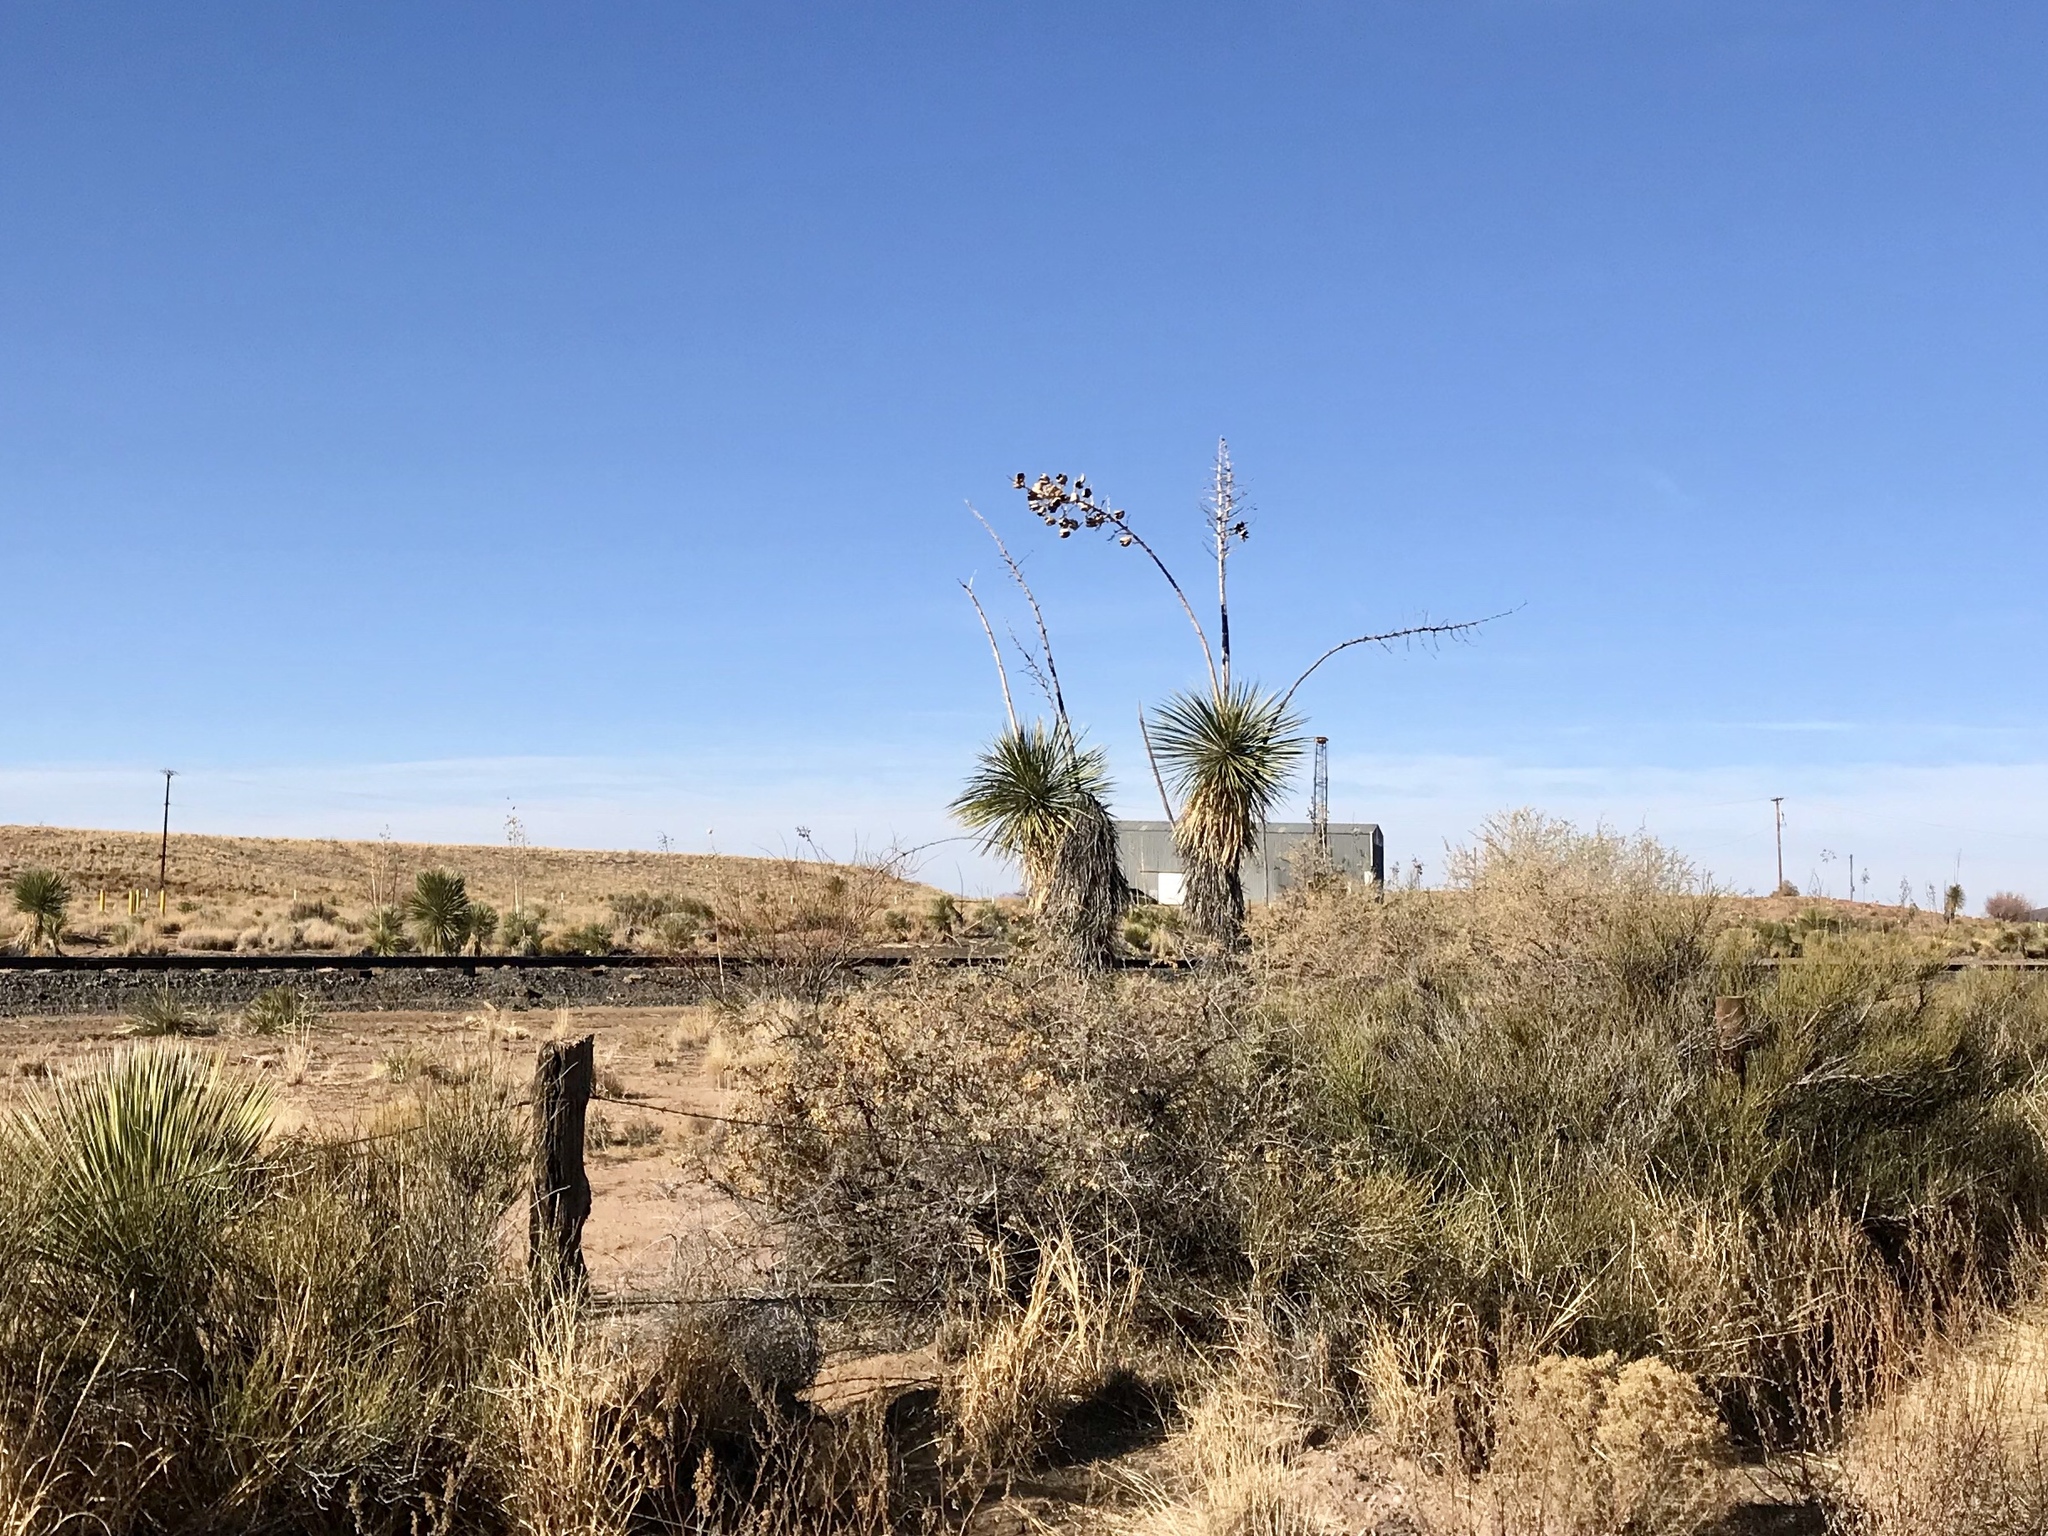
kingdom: Plantae
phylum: Tracheophyta
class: Liliopsida
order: Asparagales
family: Asparagaceae
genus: Yucca
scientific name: Yucca elata
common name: Palmella
